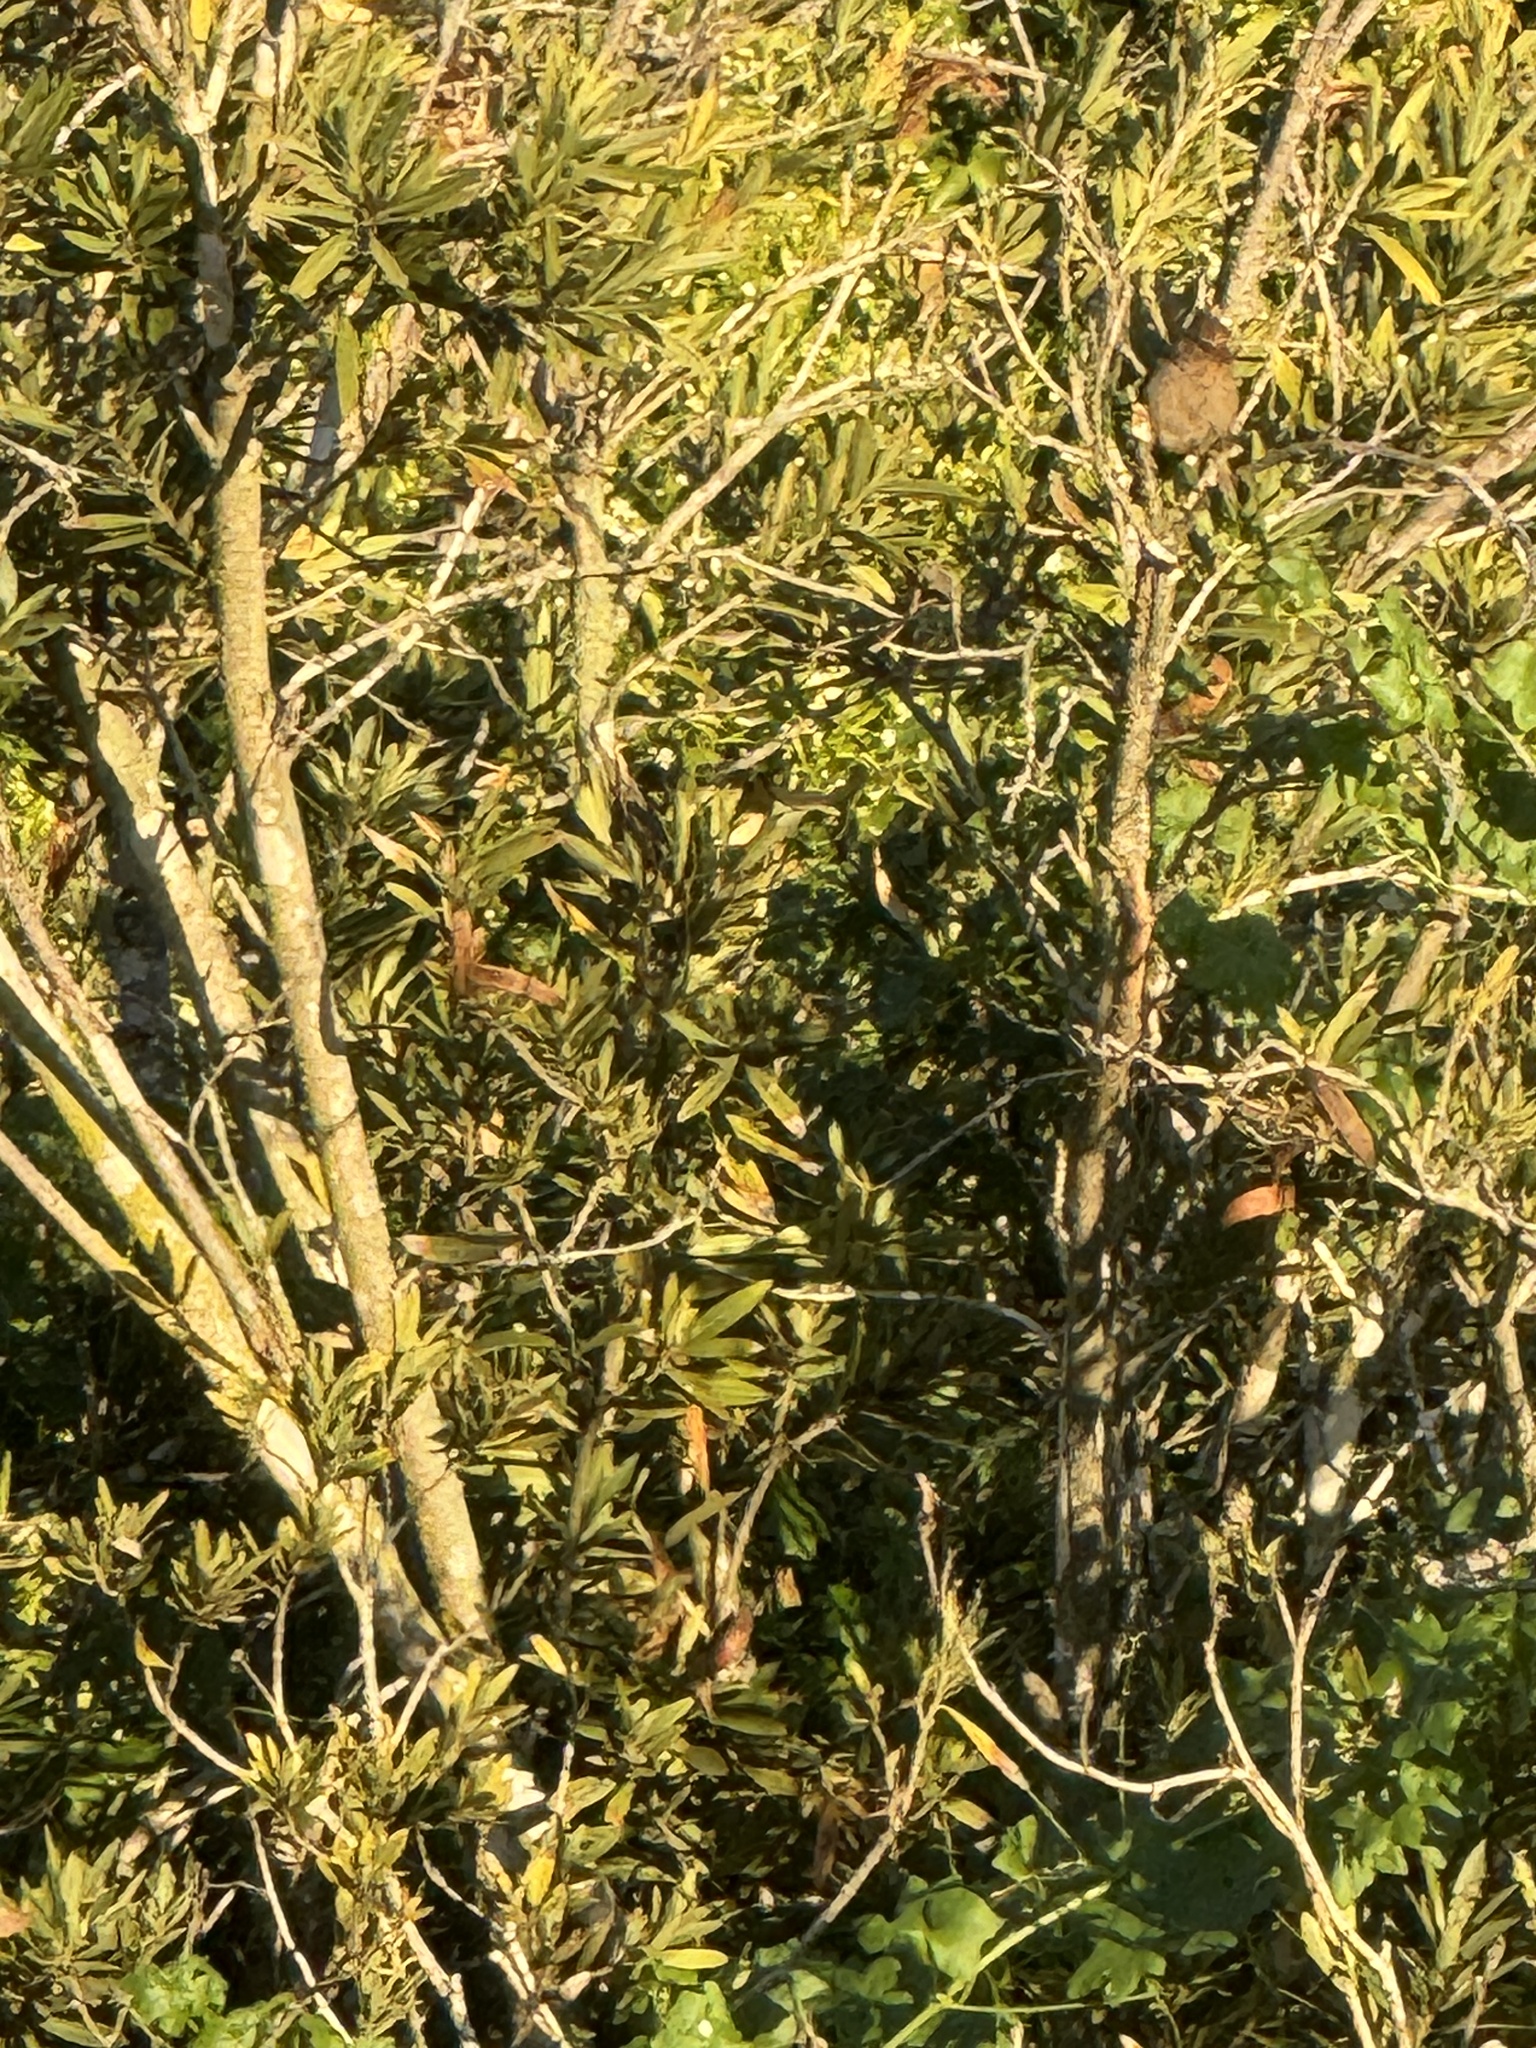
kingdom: Animalia
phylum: Chordata
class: Aves
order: Passeriformes
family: Passerellidae
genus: Melozone
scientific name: Melozone crissalis
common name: California towhee
